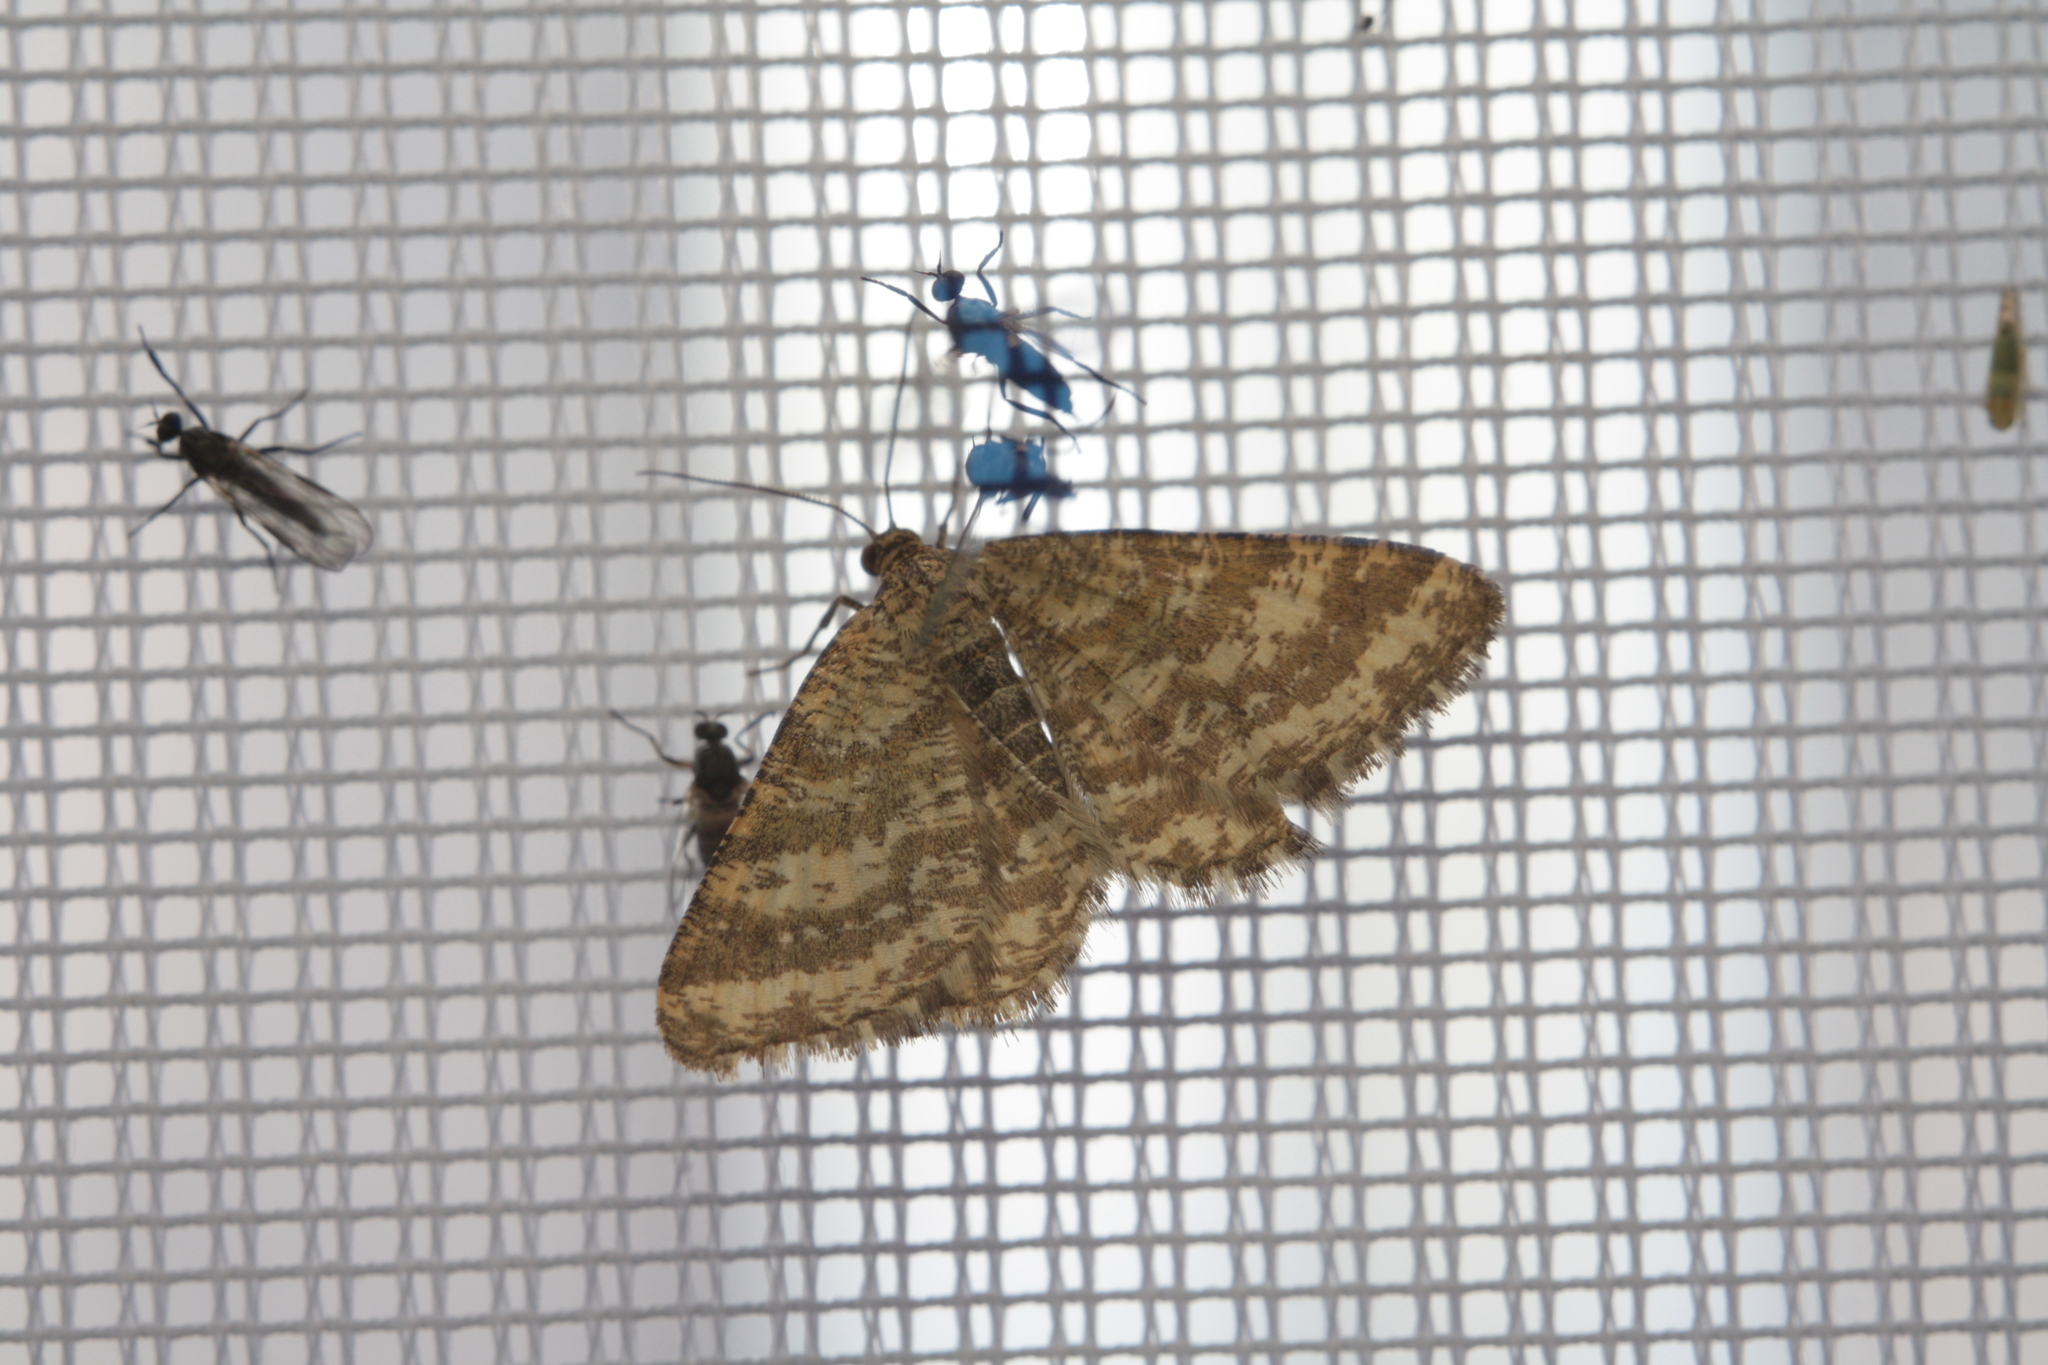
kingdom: Animalia
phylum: Arthropoda
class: Insecta
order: Lepidoptera
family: Geometridae
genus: Heliomata
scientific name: Heliomata glarearia
